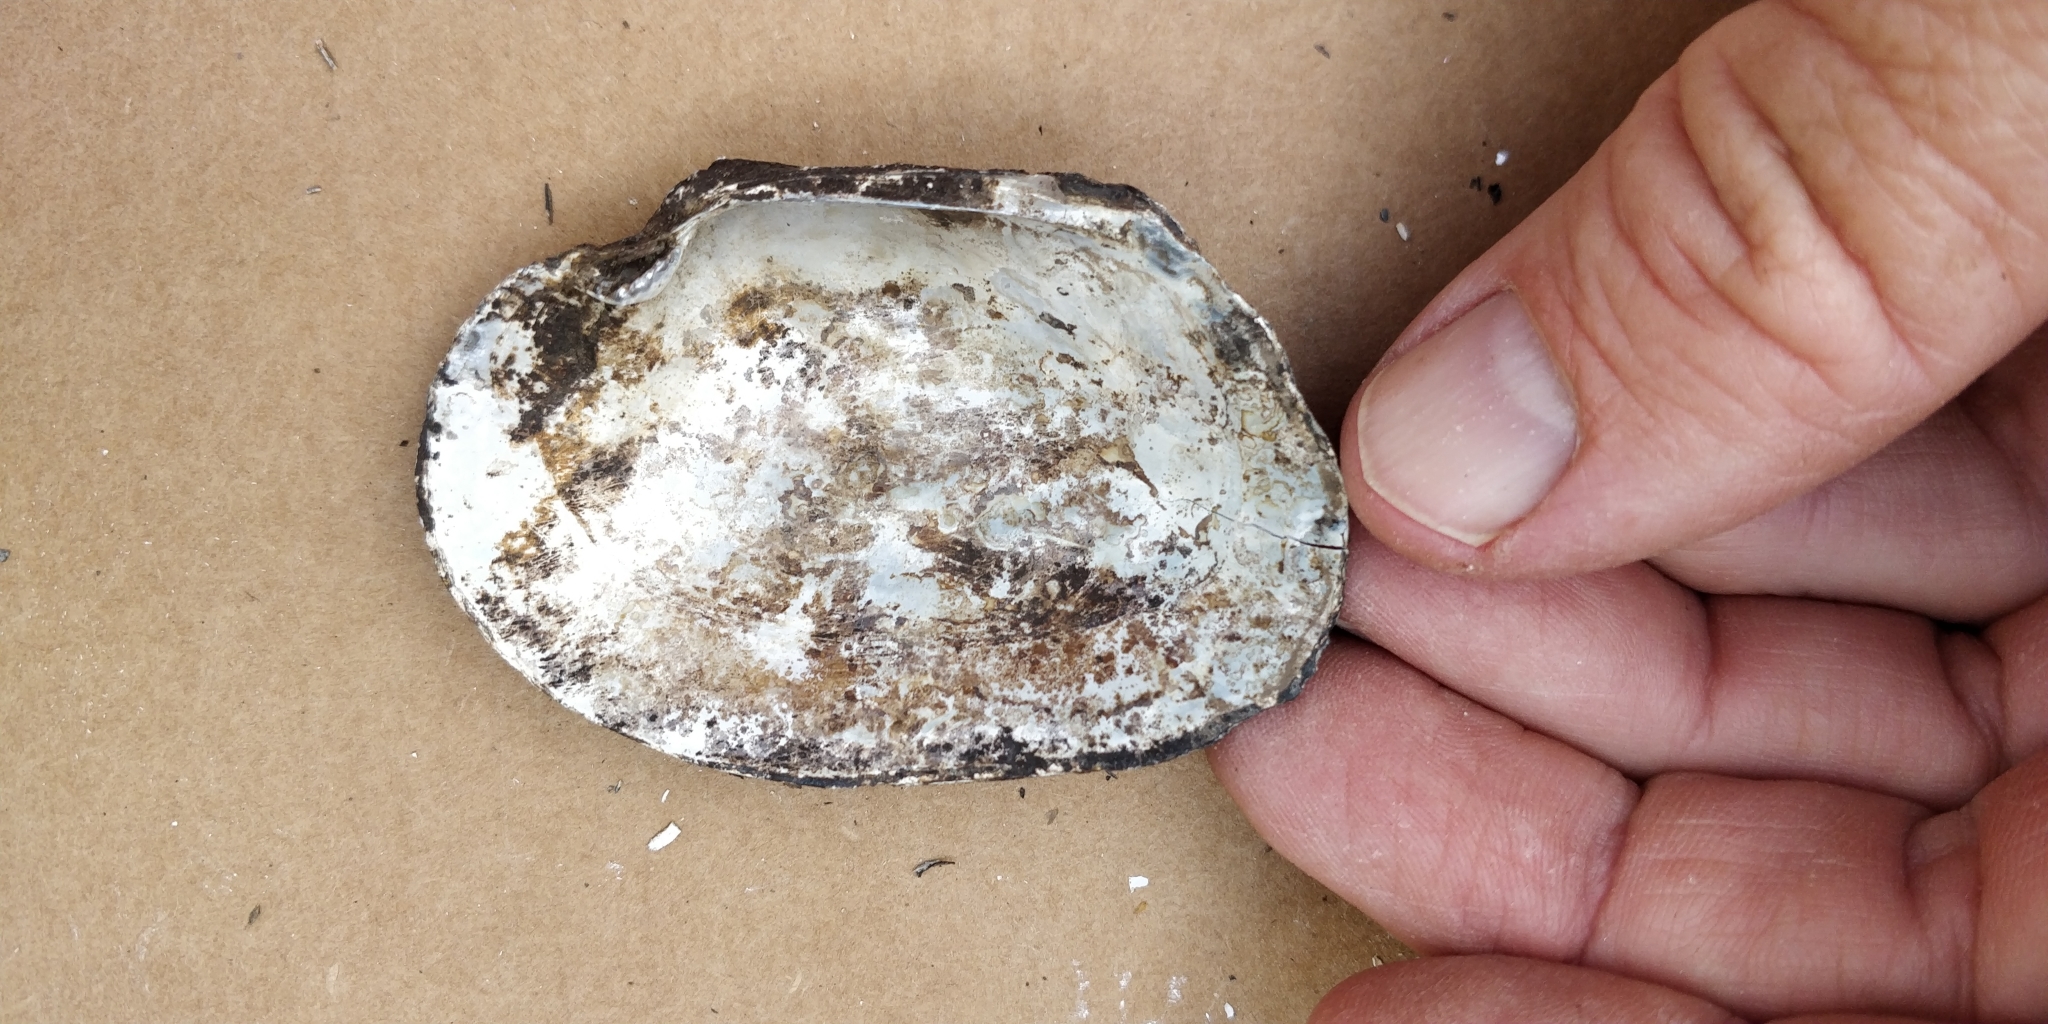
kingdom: Animalia
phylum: Mollusca
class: Bivalvia
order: Unionida
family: Unionidae
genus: Arcidens
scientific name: Arcidens confragosus
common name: Rock pocketbook
